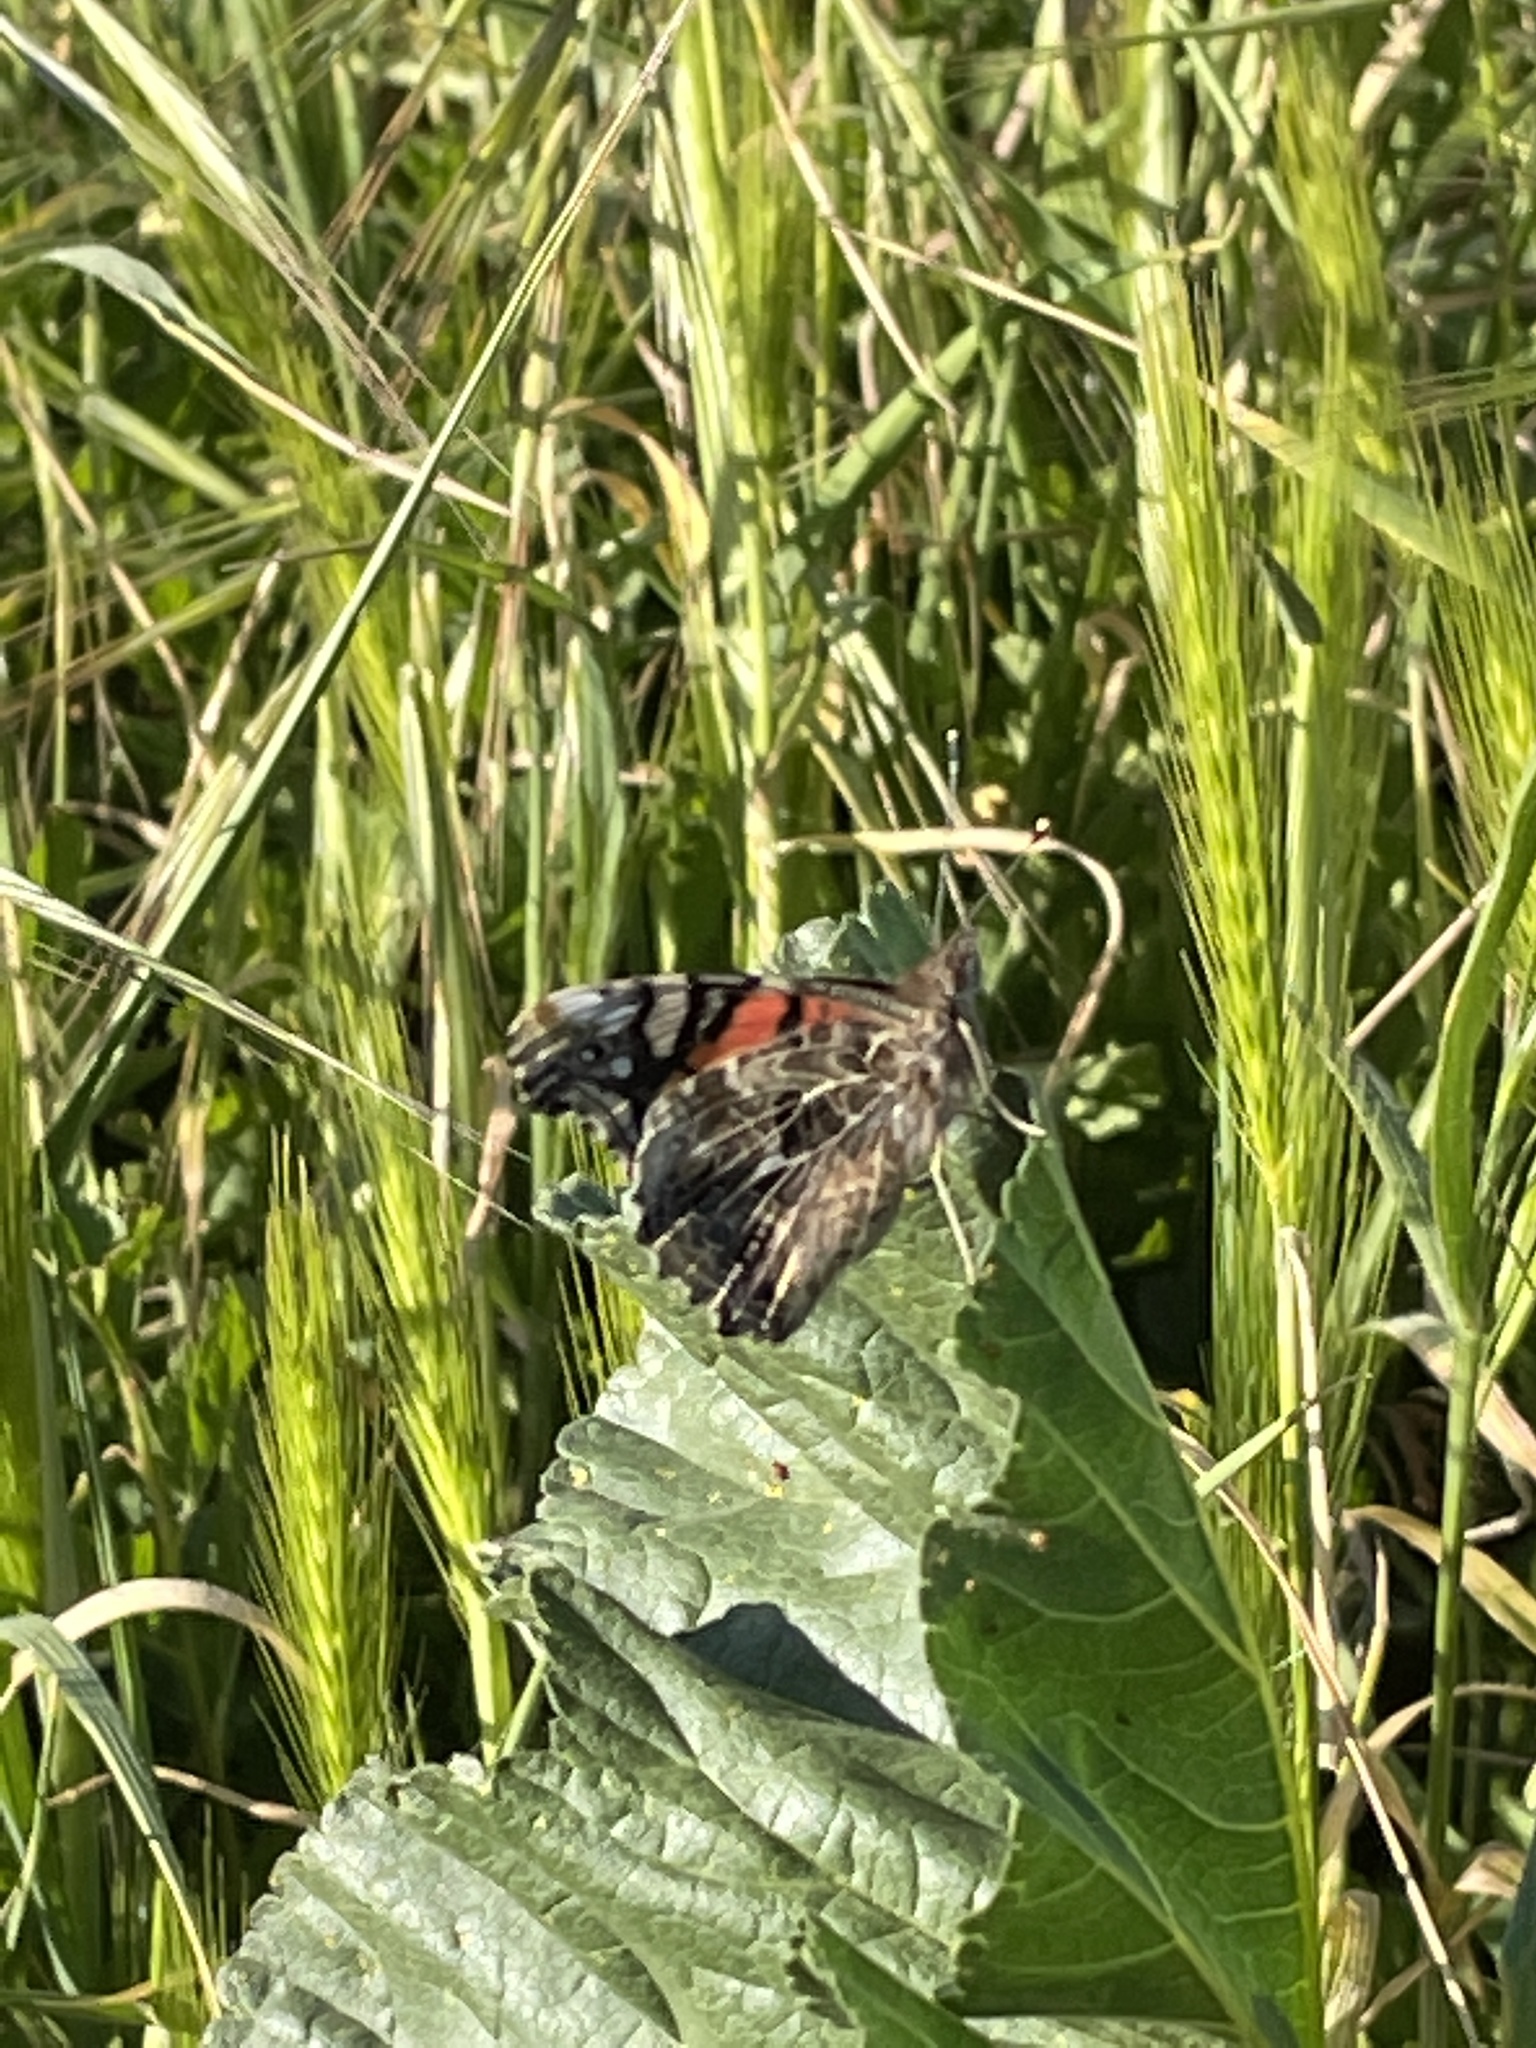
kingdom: Animalia
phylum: Arthropoda
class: Insecta
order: Lepidoptera
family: Nymphalidae
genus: Vanessa
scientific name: Vanessa annabella
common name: West coast lady
